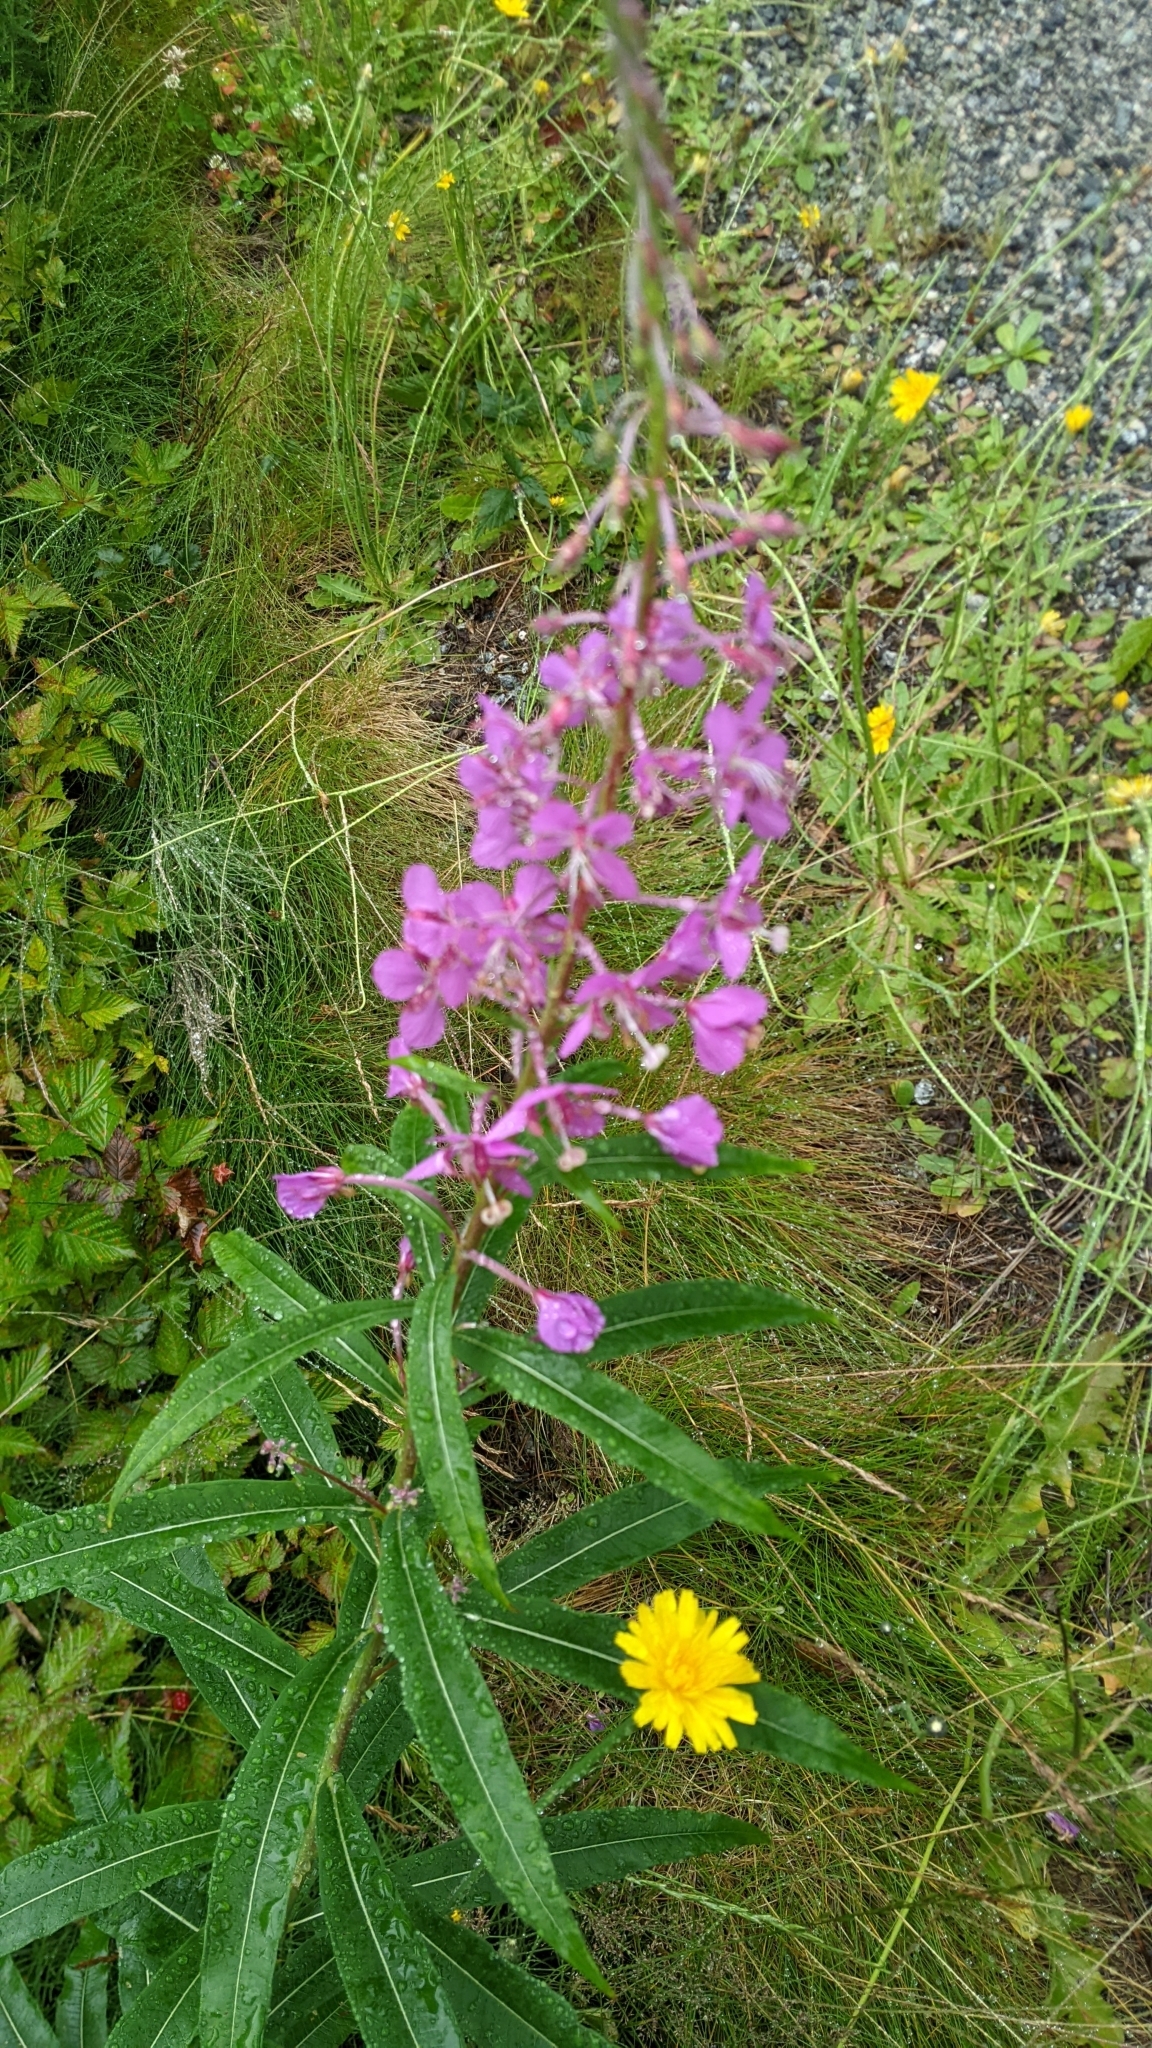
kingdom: Plantae
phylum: Tracheophyta
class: Magnoliopsida
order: Myrtales
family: Onagraceae
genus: Chamaenerion
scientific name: Chamaenerion angustifolium
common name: Fireweed
